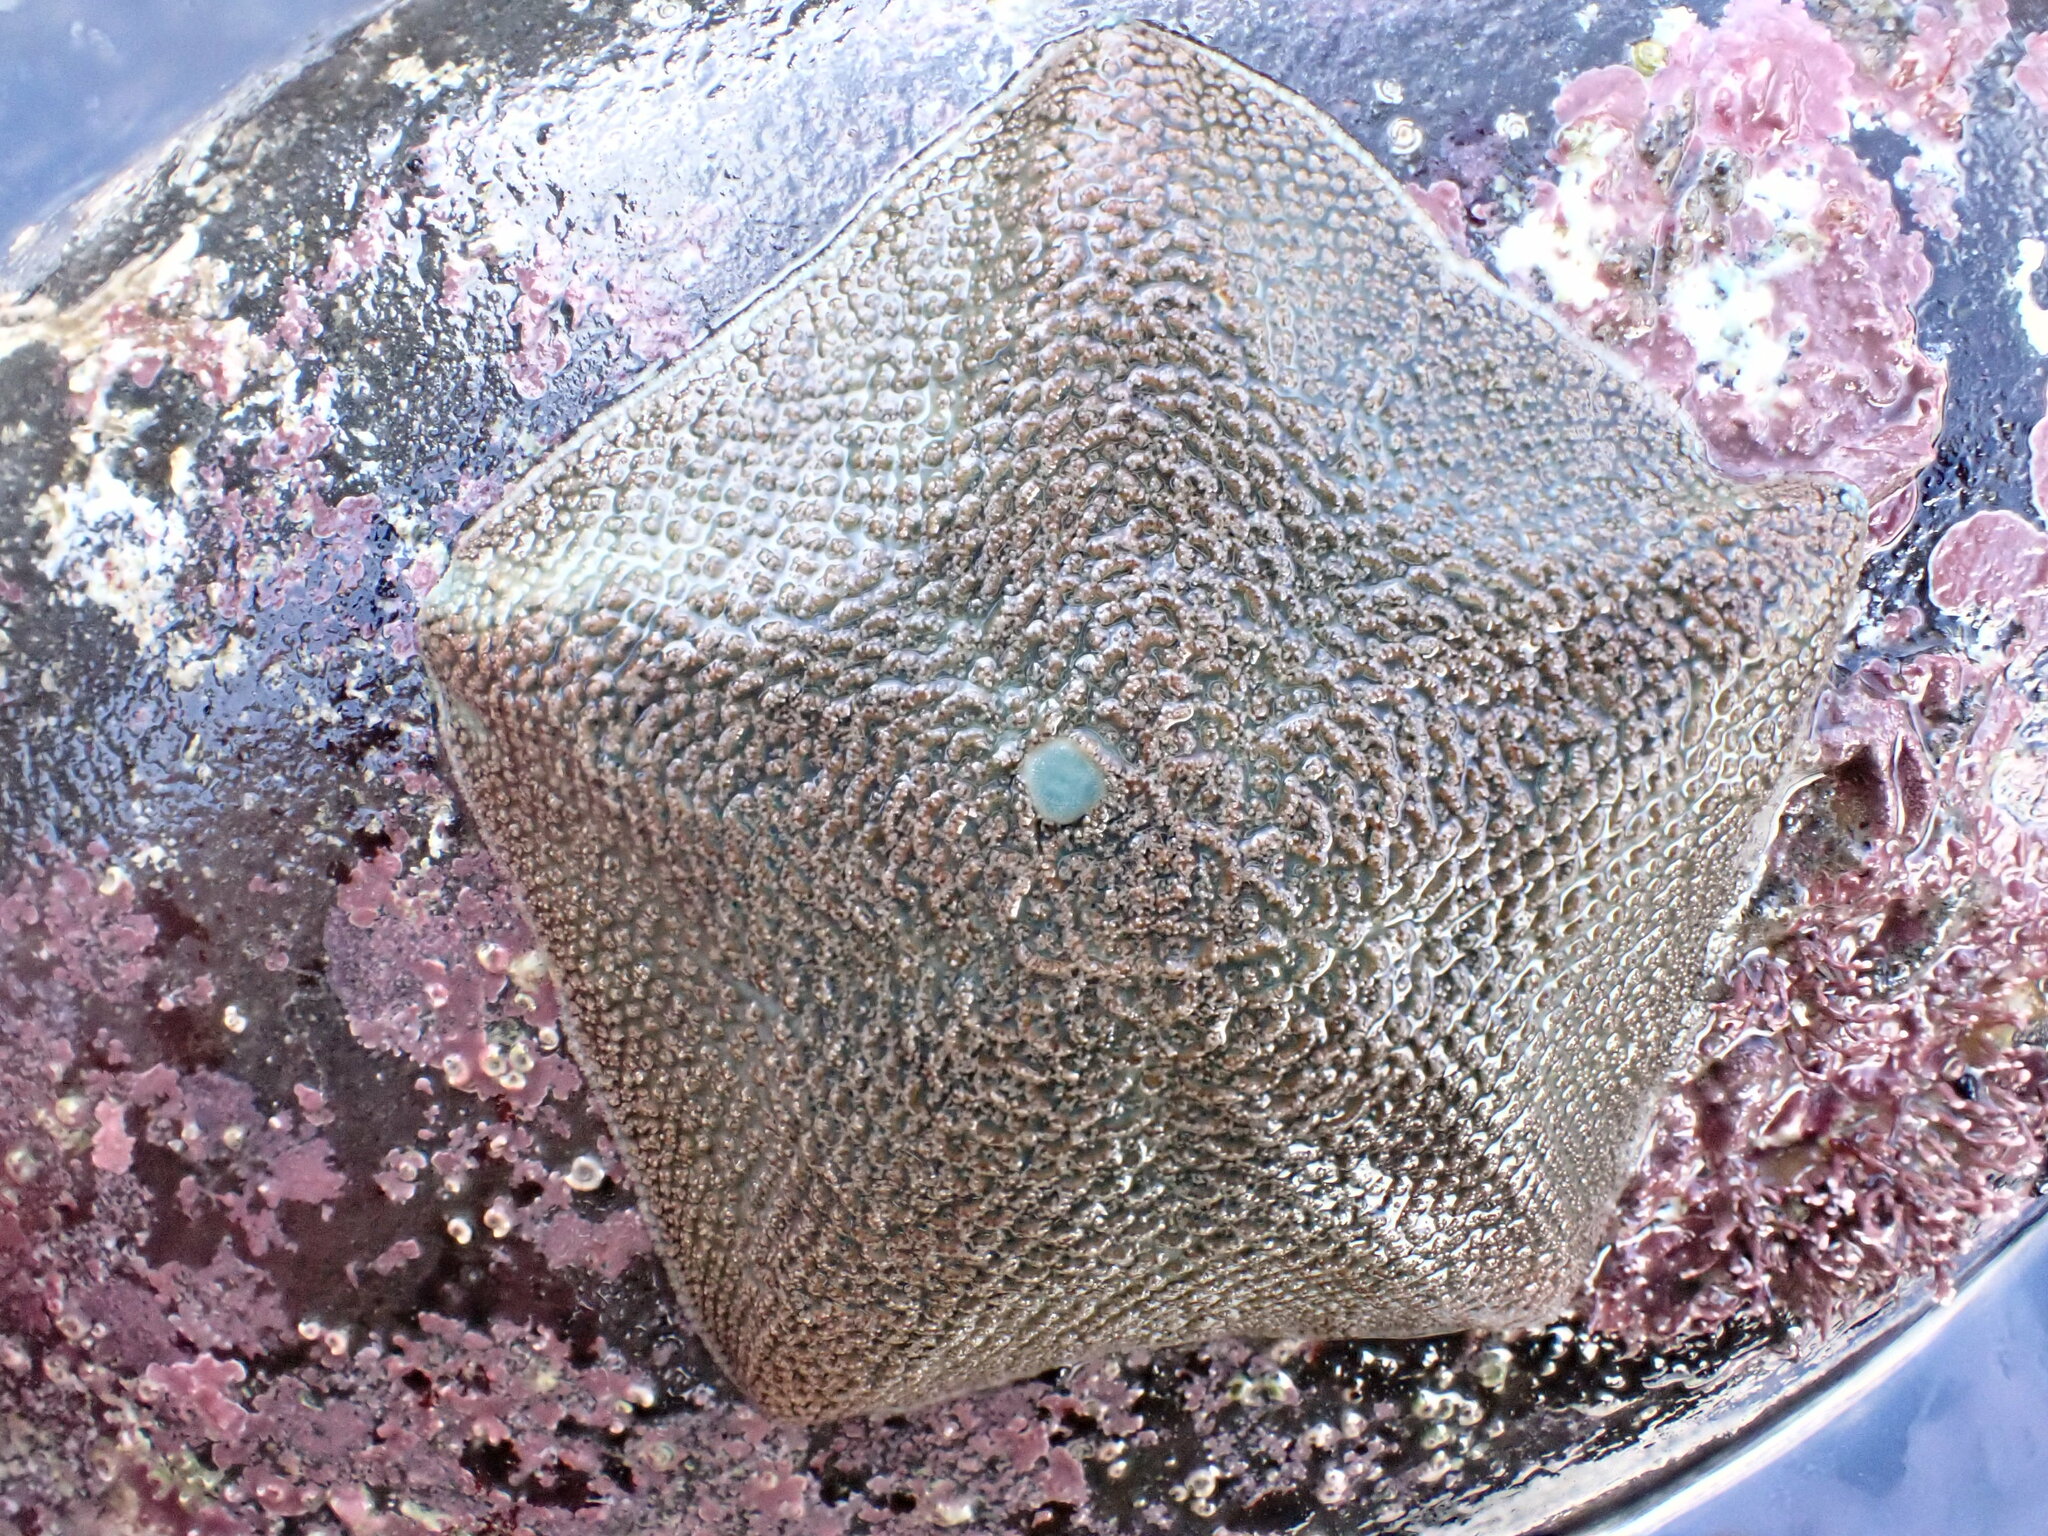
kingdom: Animalia
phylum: Echinodermata
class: Asteroidea
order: Valvatida
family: Asterinidae
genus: Patiriella
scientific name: Patiriella regularis
